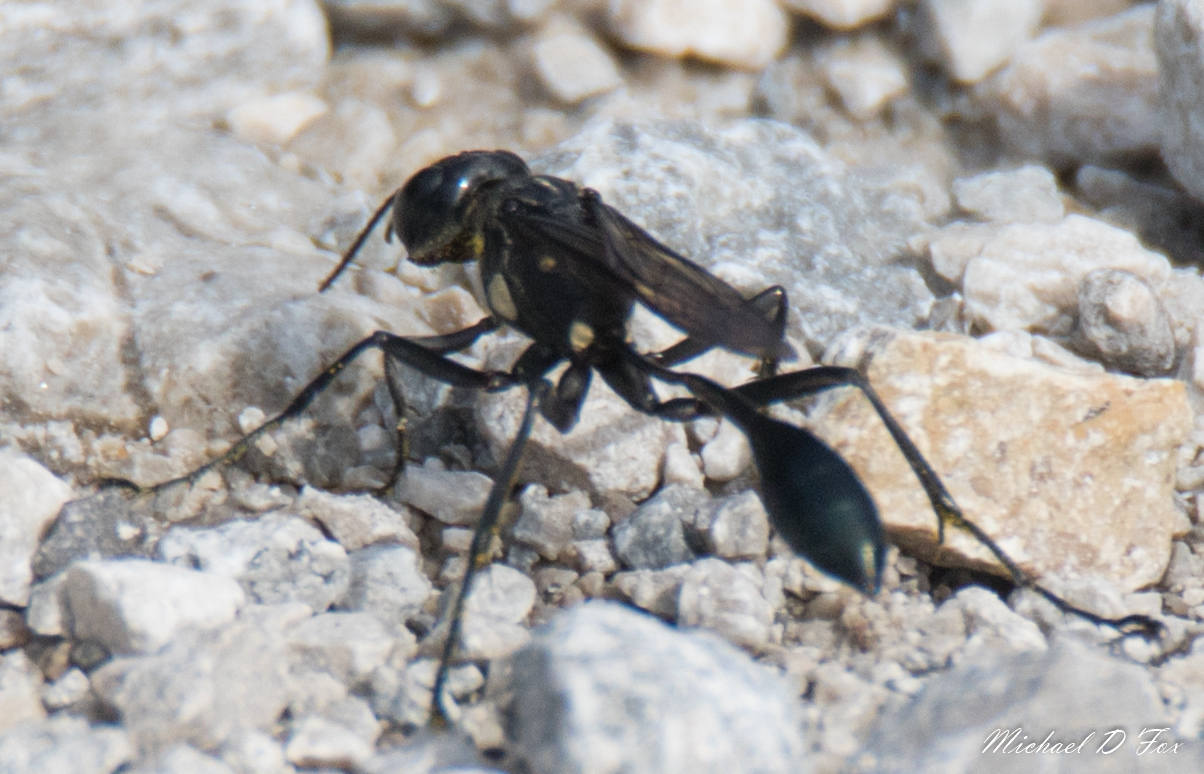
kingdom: Animalia
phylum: Arthropoda
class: Insecta
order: Hymenoptera
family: Sphecidae
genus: Eremnophila
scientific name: Eremnophila aureonotata
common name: Gold-marked thread-waisted wasp
